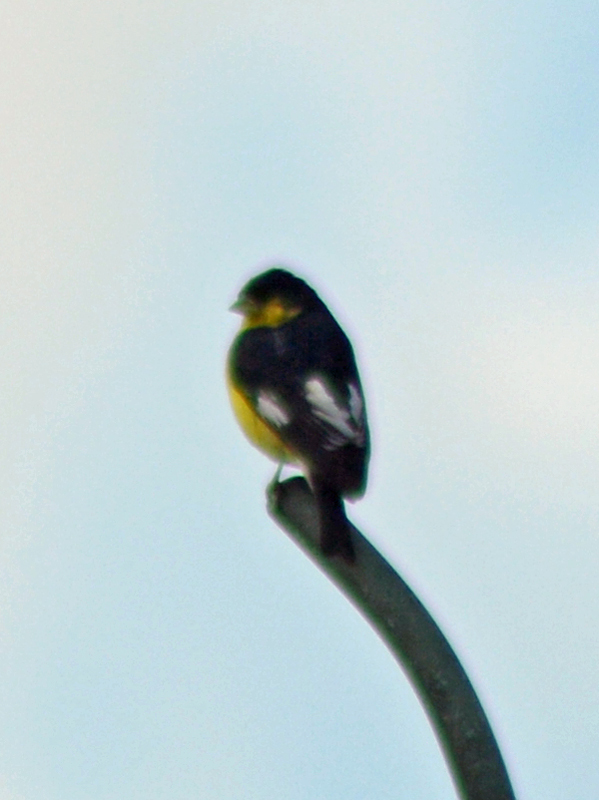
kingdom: Animalia
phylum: Chordata
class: Aves
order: Passeriformes
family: Fringillidae
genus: Spinus
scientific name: Spinus psaltria
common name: Lesser goldfinch
